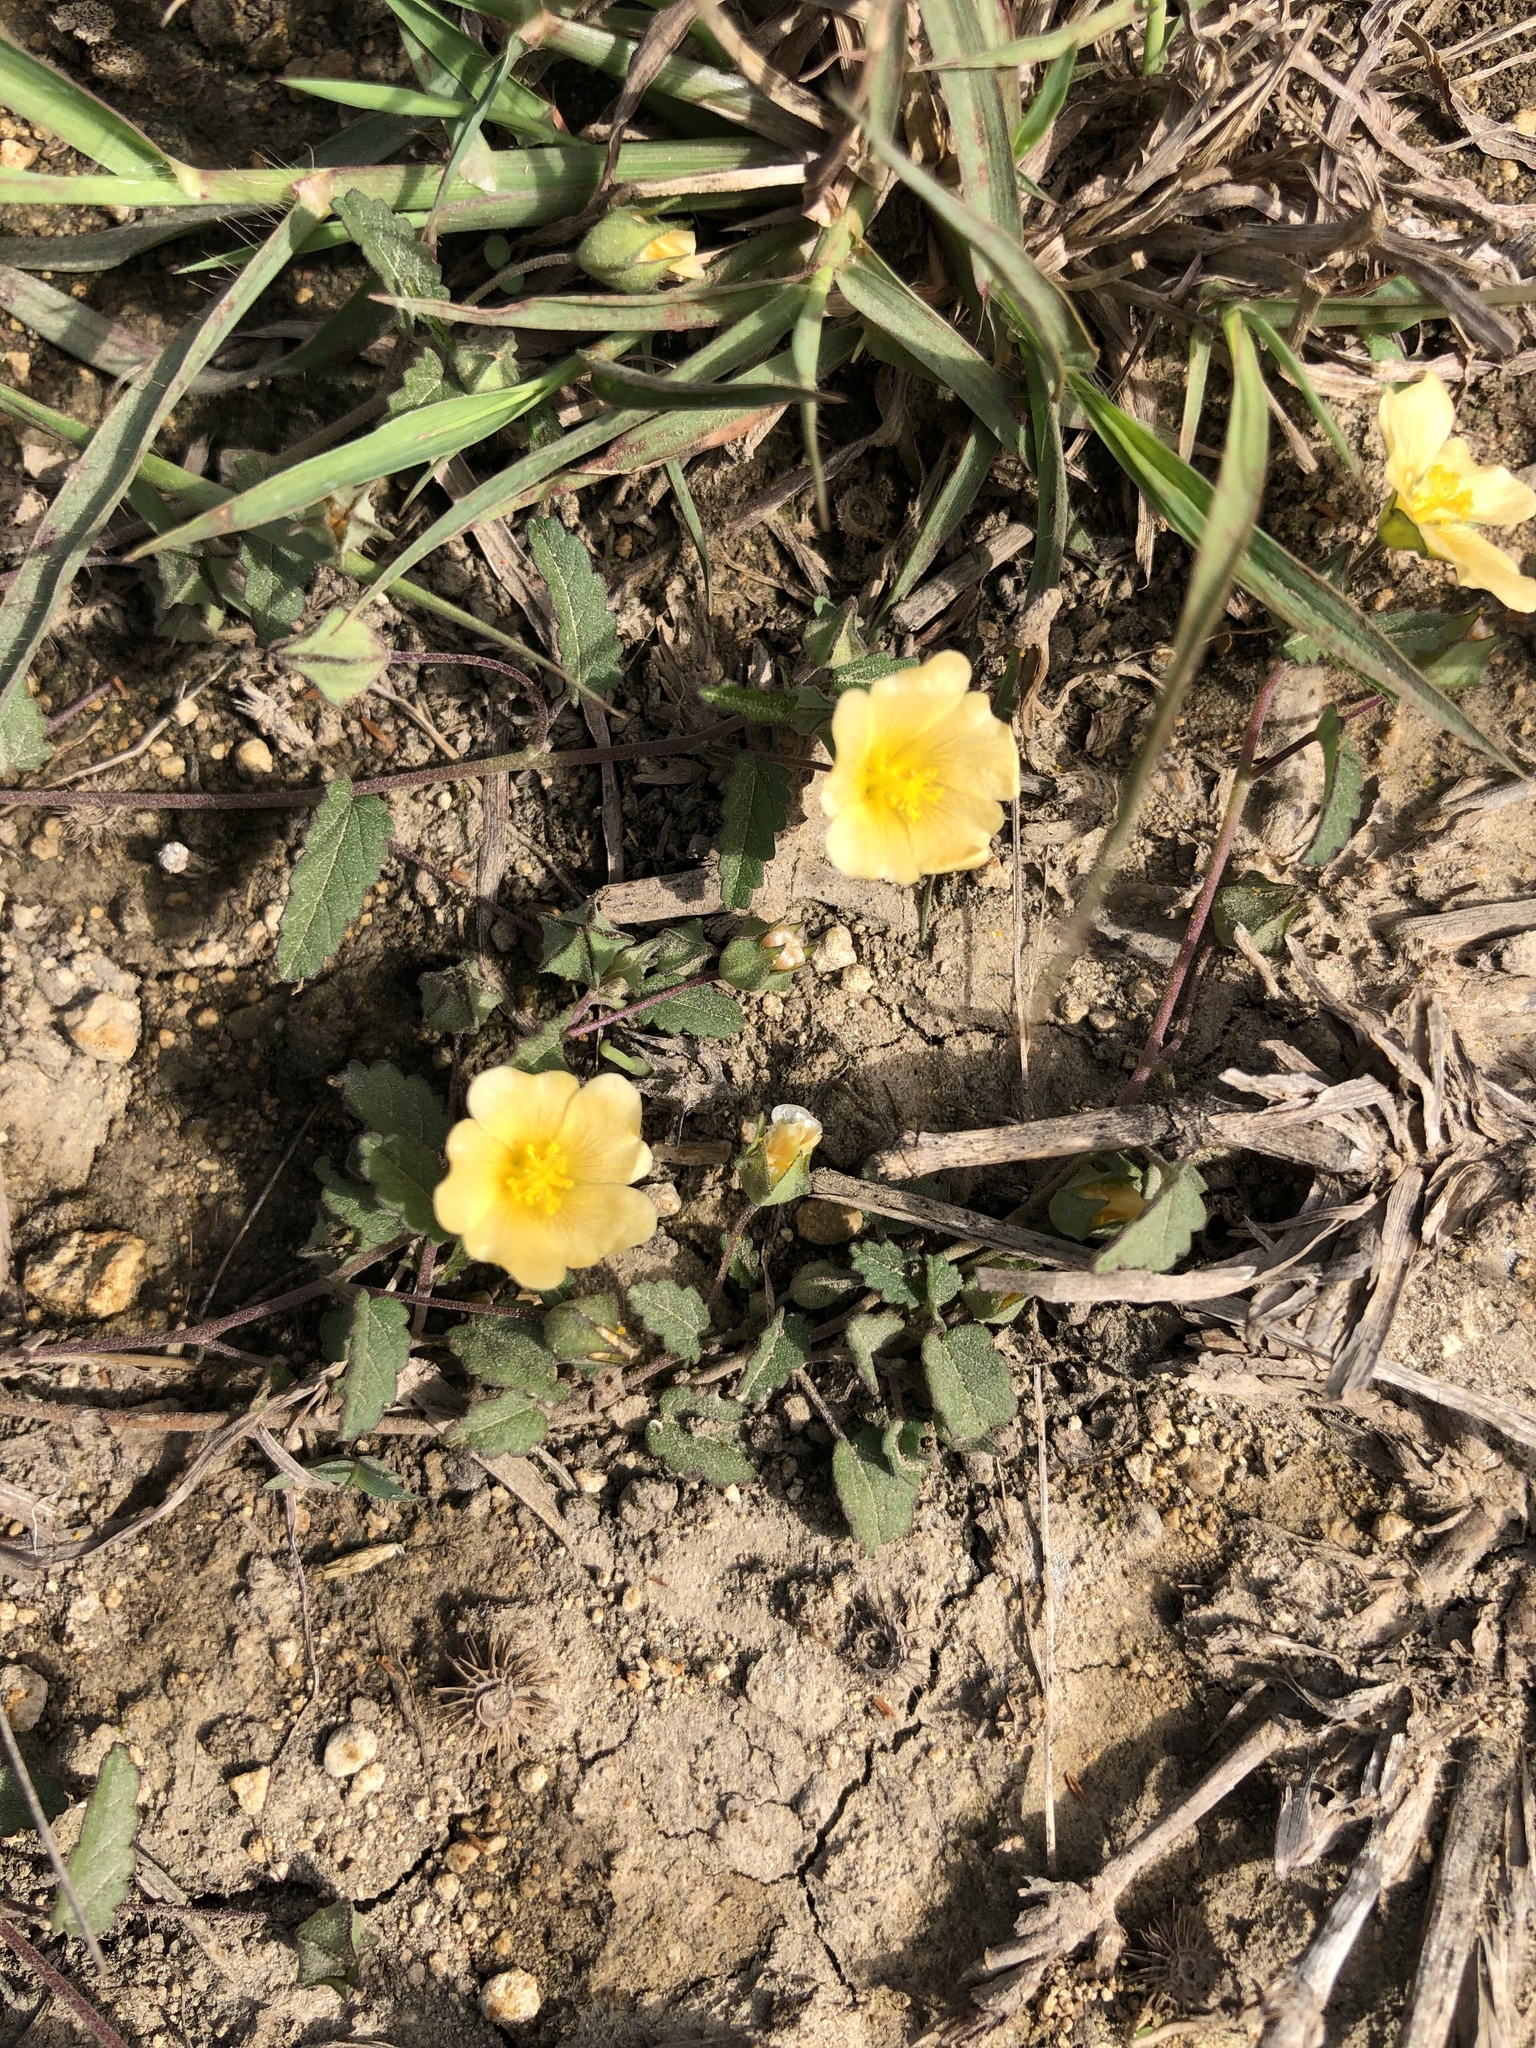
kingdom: Plantae
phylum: Tracheophyta
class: Magnoliopsida
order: Malvales
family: Malvaceae
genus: Sida
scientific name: Sida abutilifolia
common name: Spreading fanpetals
